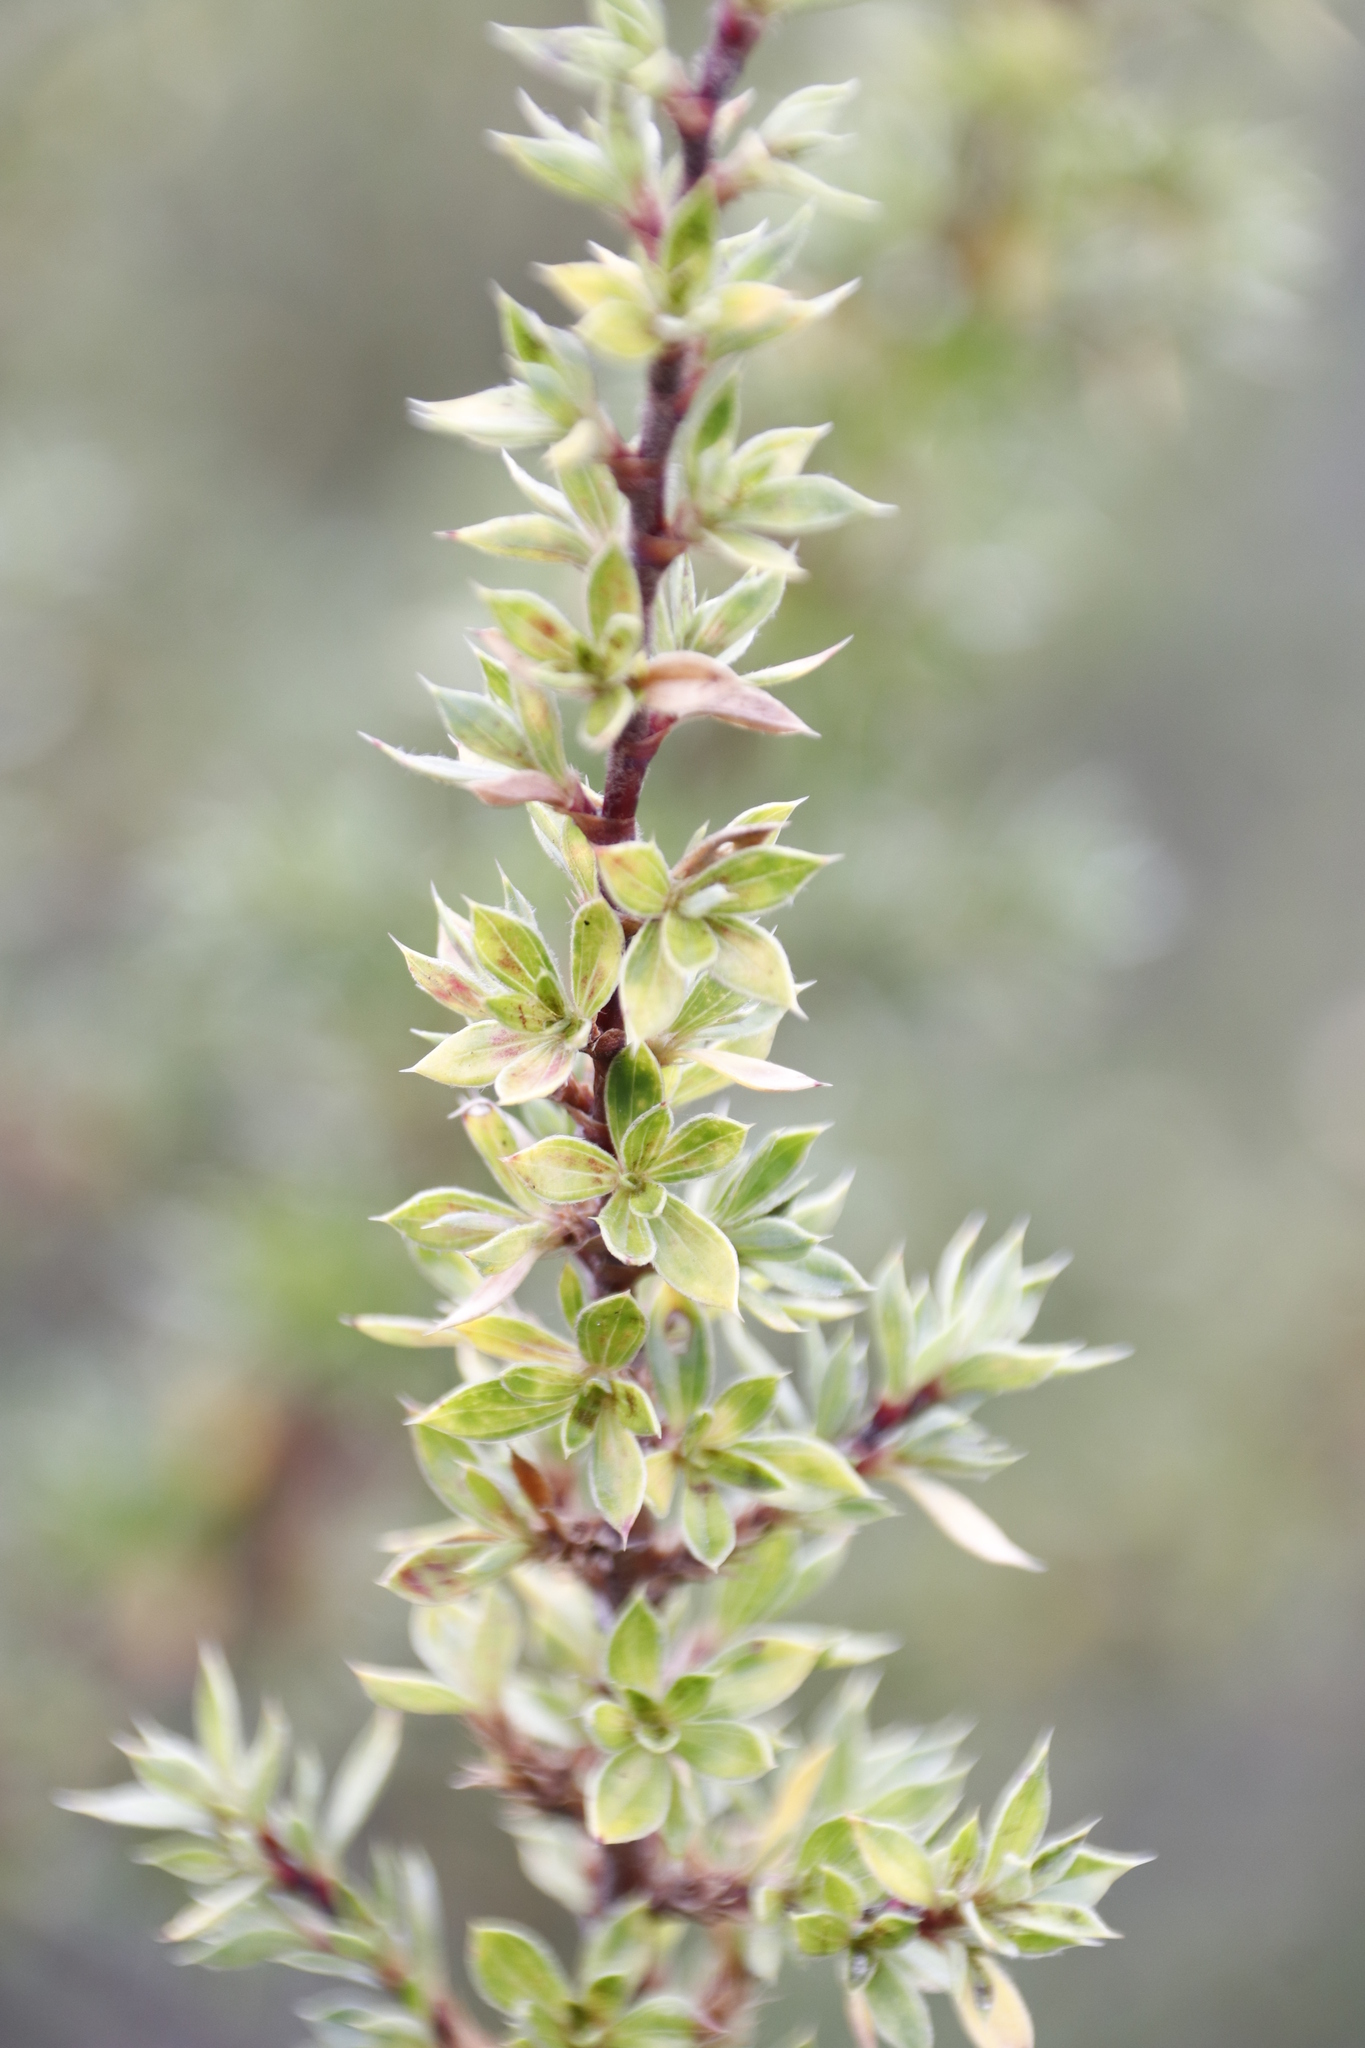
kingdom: Plantae
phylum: Tracheophyta
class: Magnoliopsida
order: Rosales
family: Rosaceae
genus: Cliffortia
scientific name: Cliffortia ruscifolia
